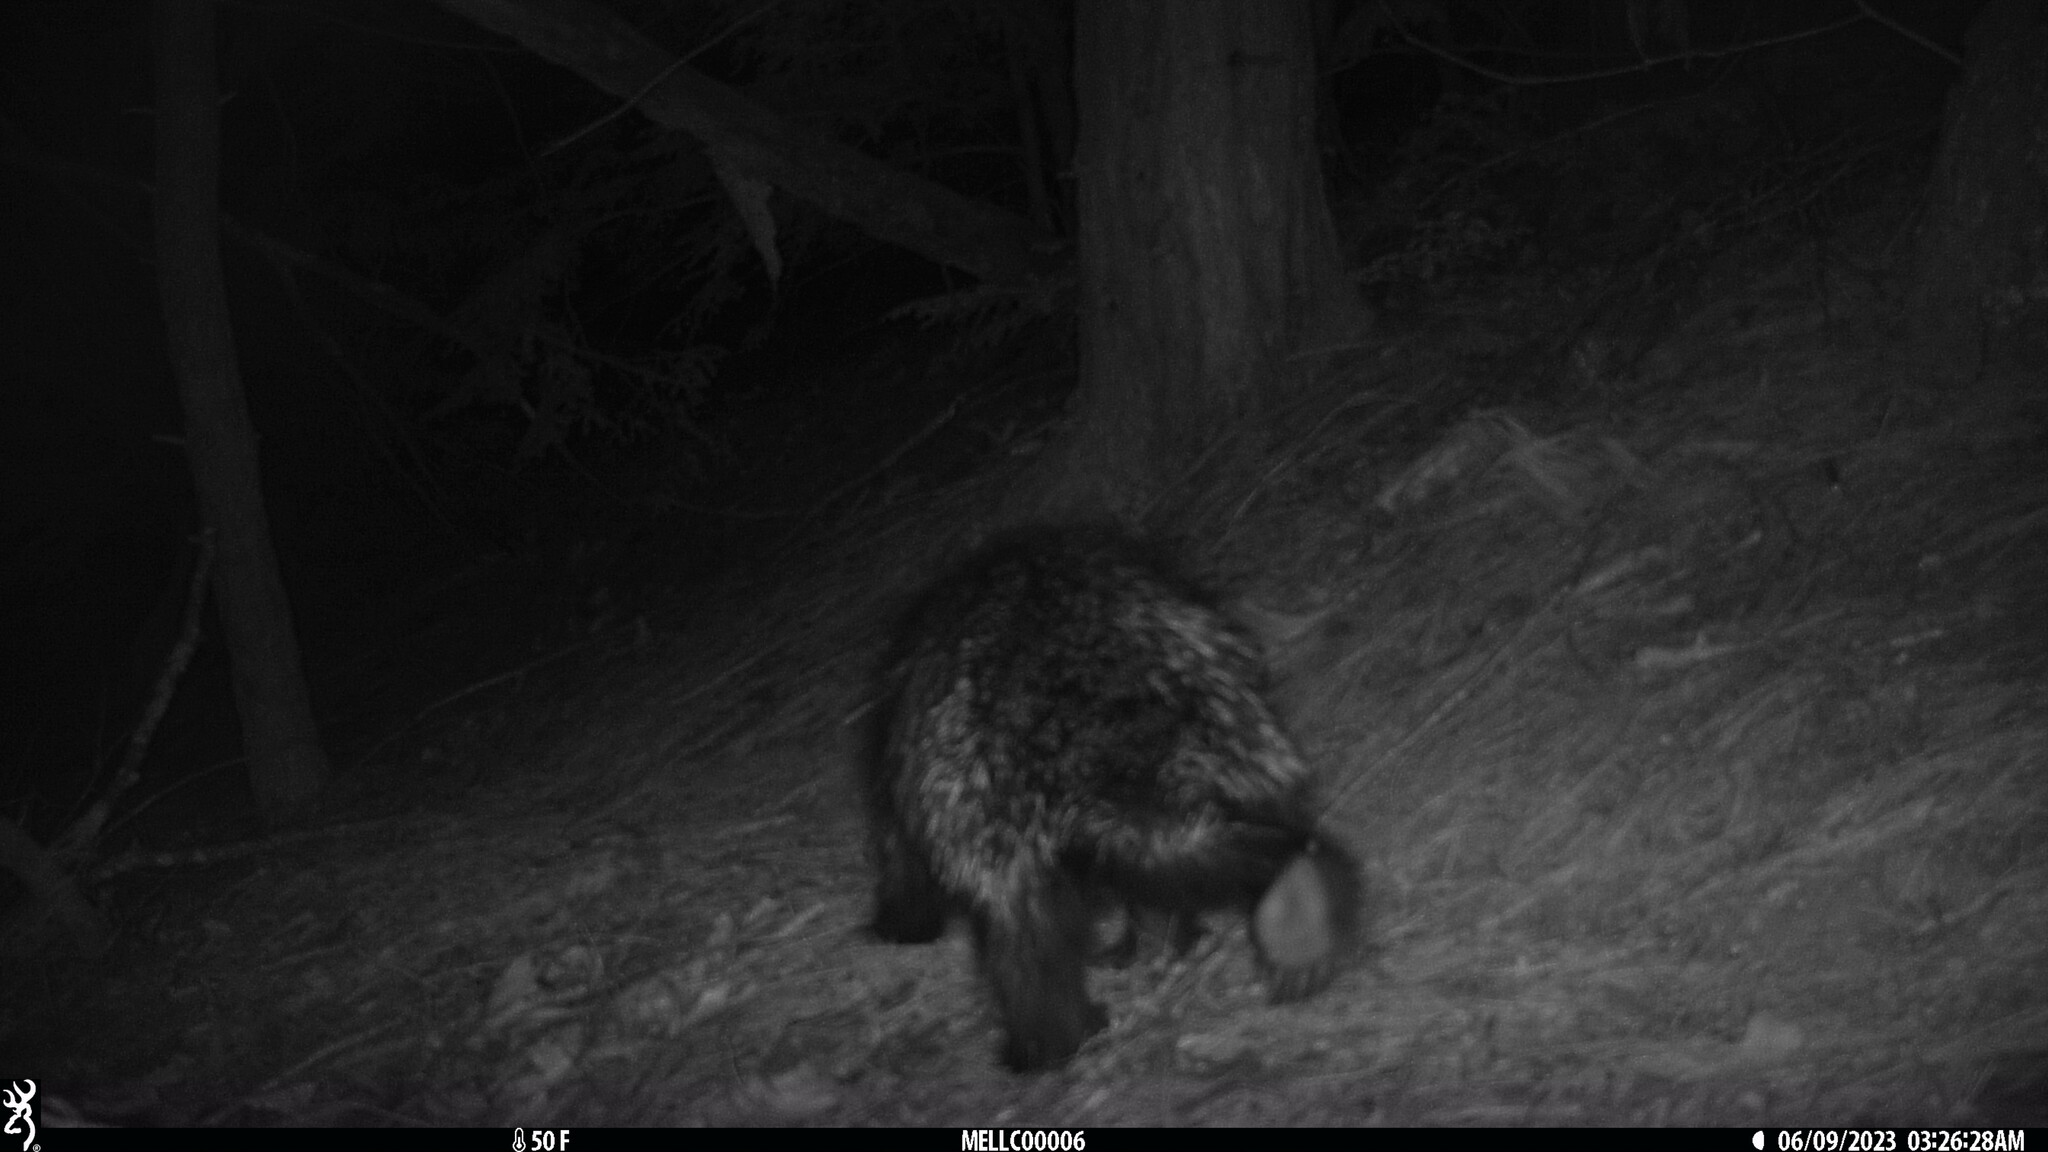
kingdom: Animalia
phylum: Chordata
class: Mammalia
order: Rodentia
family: Erethizontidae
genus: Erethizon
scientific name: Erethizon dorsatus
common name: North american porcupine
